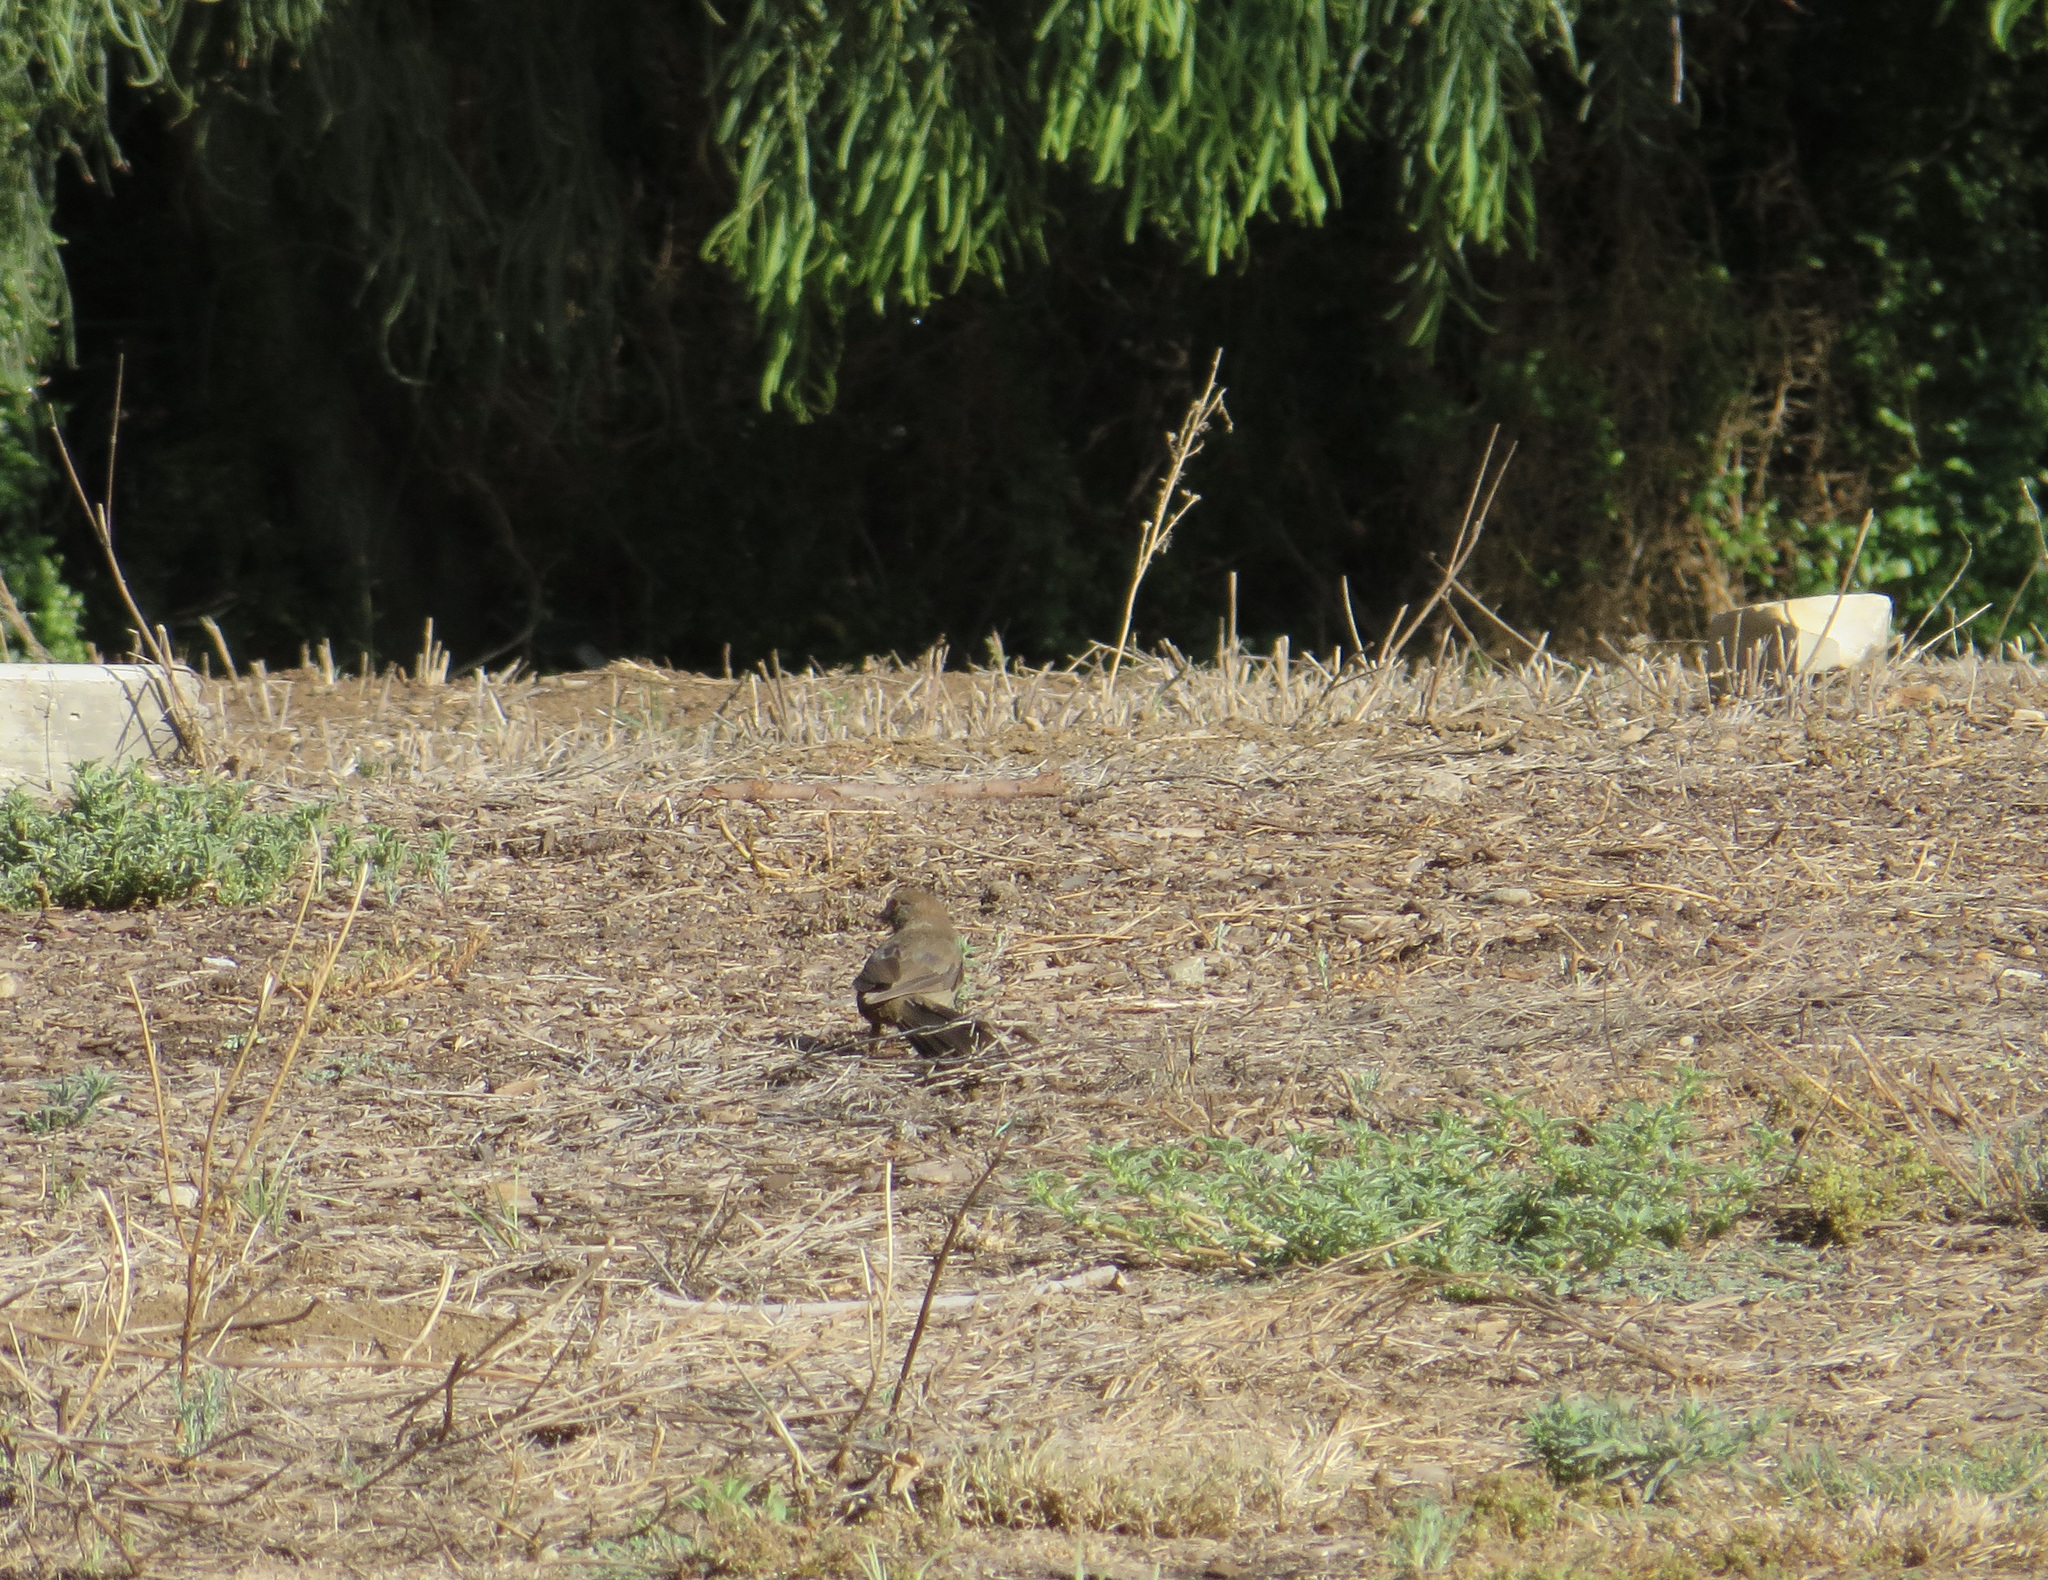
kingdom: Animalia
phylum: Chordata
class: Aves
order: Passeriformes
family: Passerellidae
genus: Melozone
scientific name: Melozone crissalis
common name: California towhee
